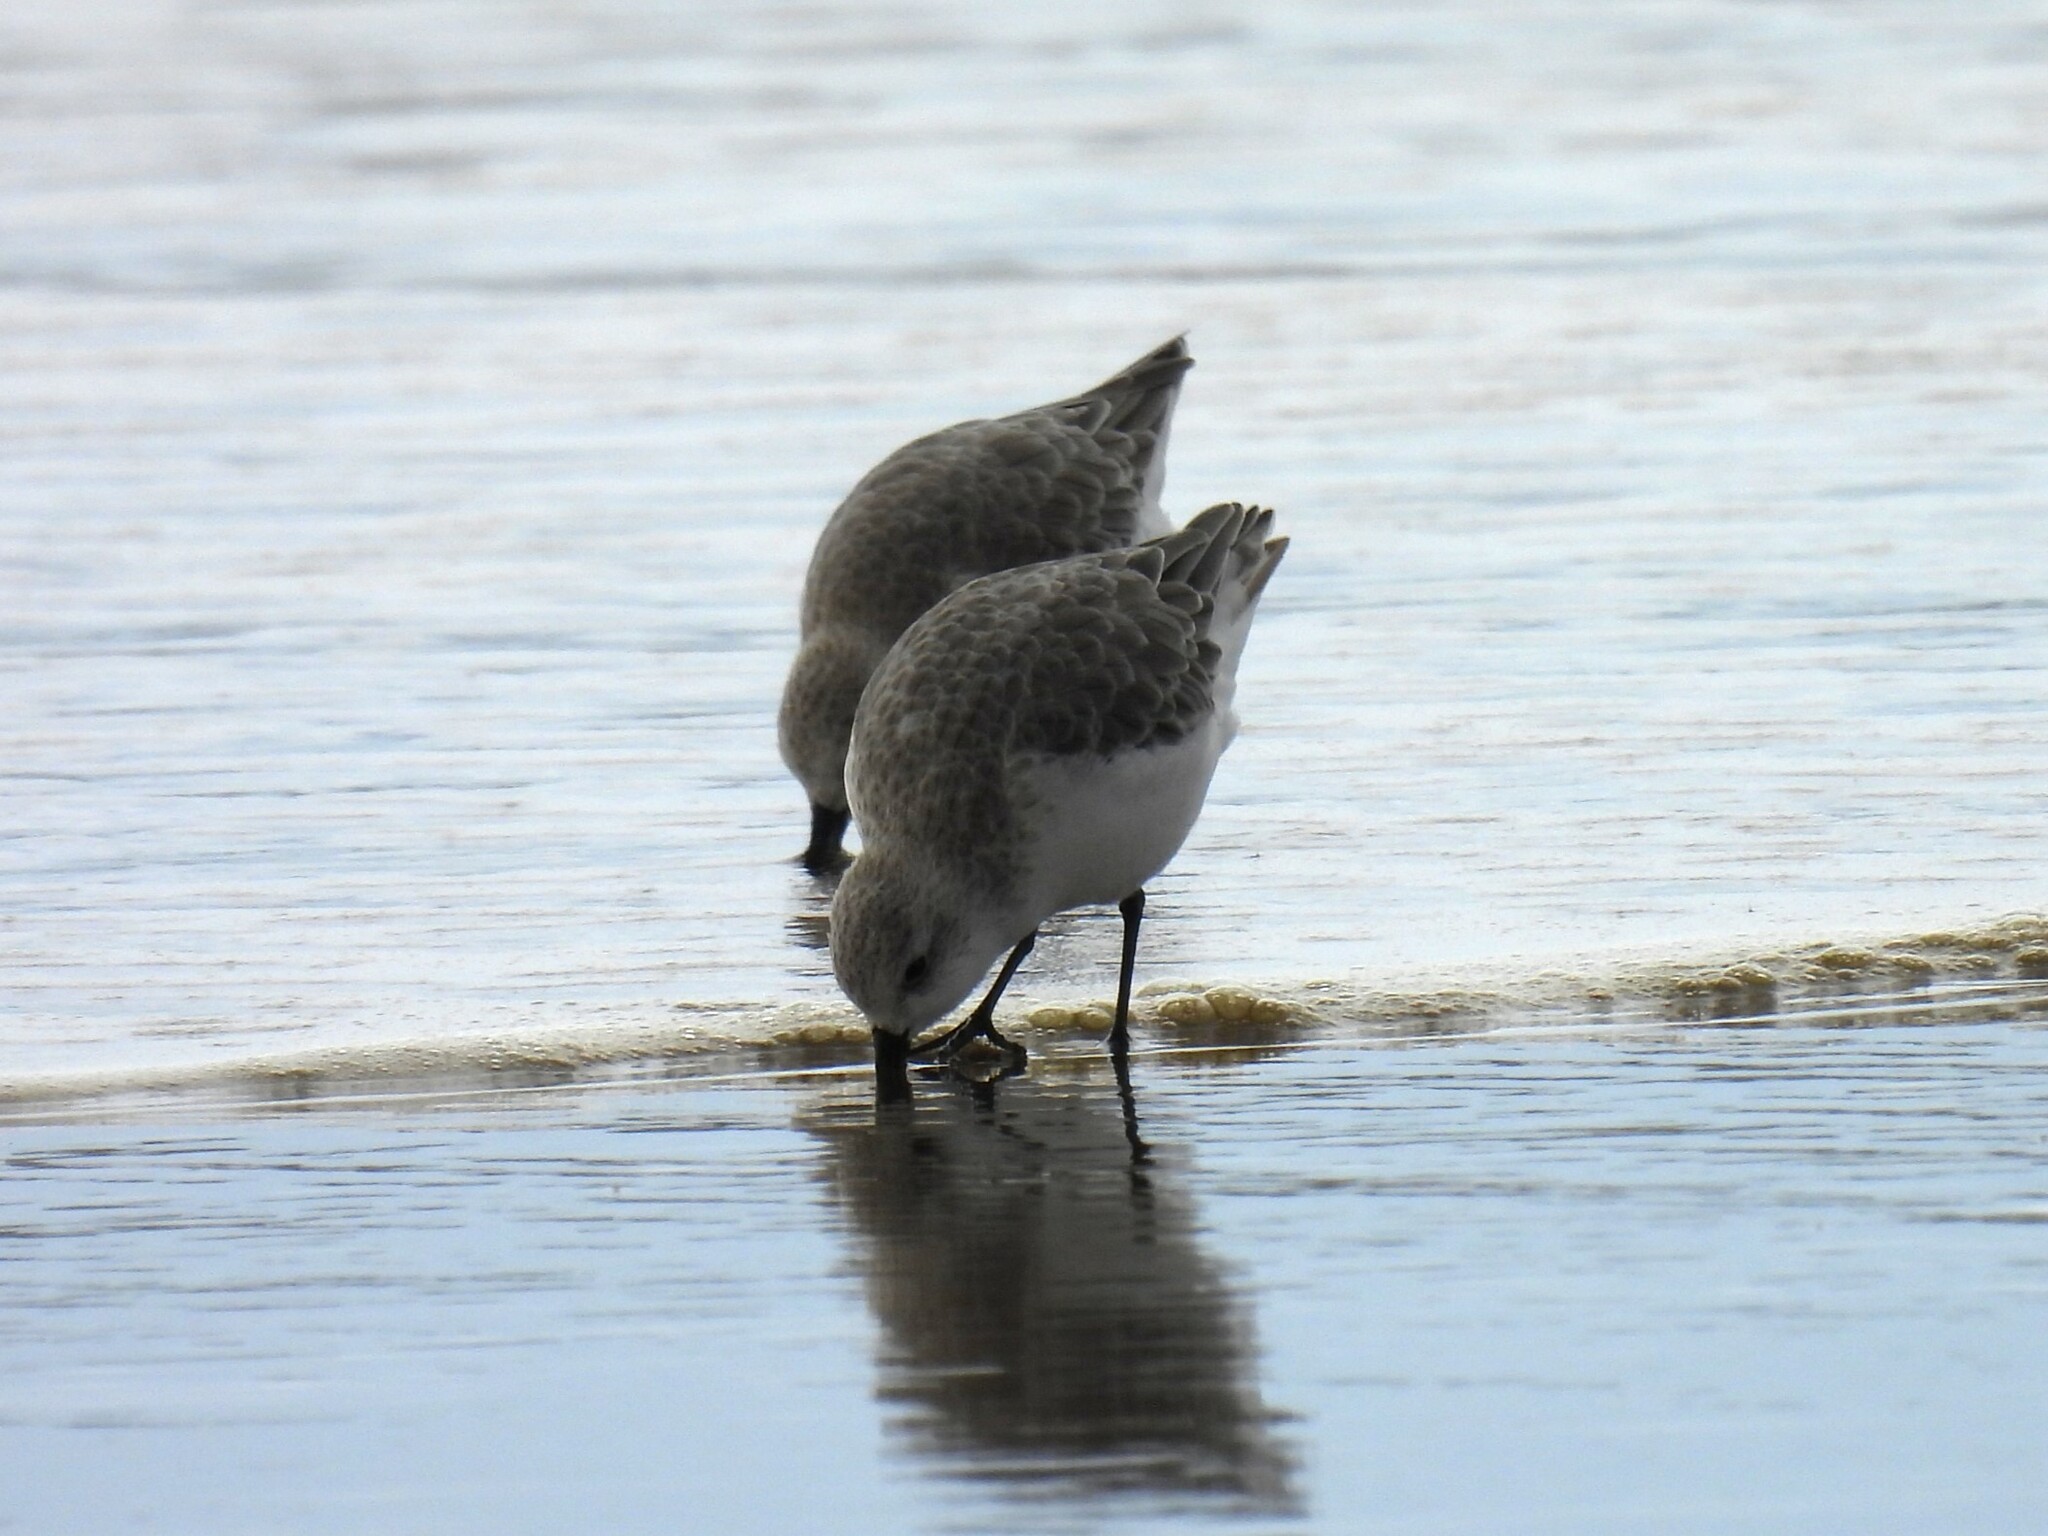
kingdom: Animalia
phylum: Chordata
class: Aves
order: Charadriiformes
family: Scolopacidae
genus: Calidris
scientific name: Calidris alba
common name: Sanderling
